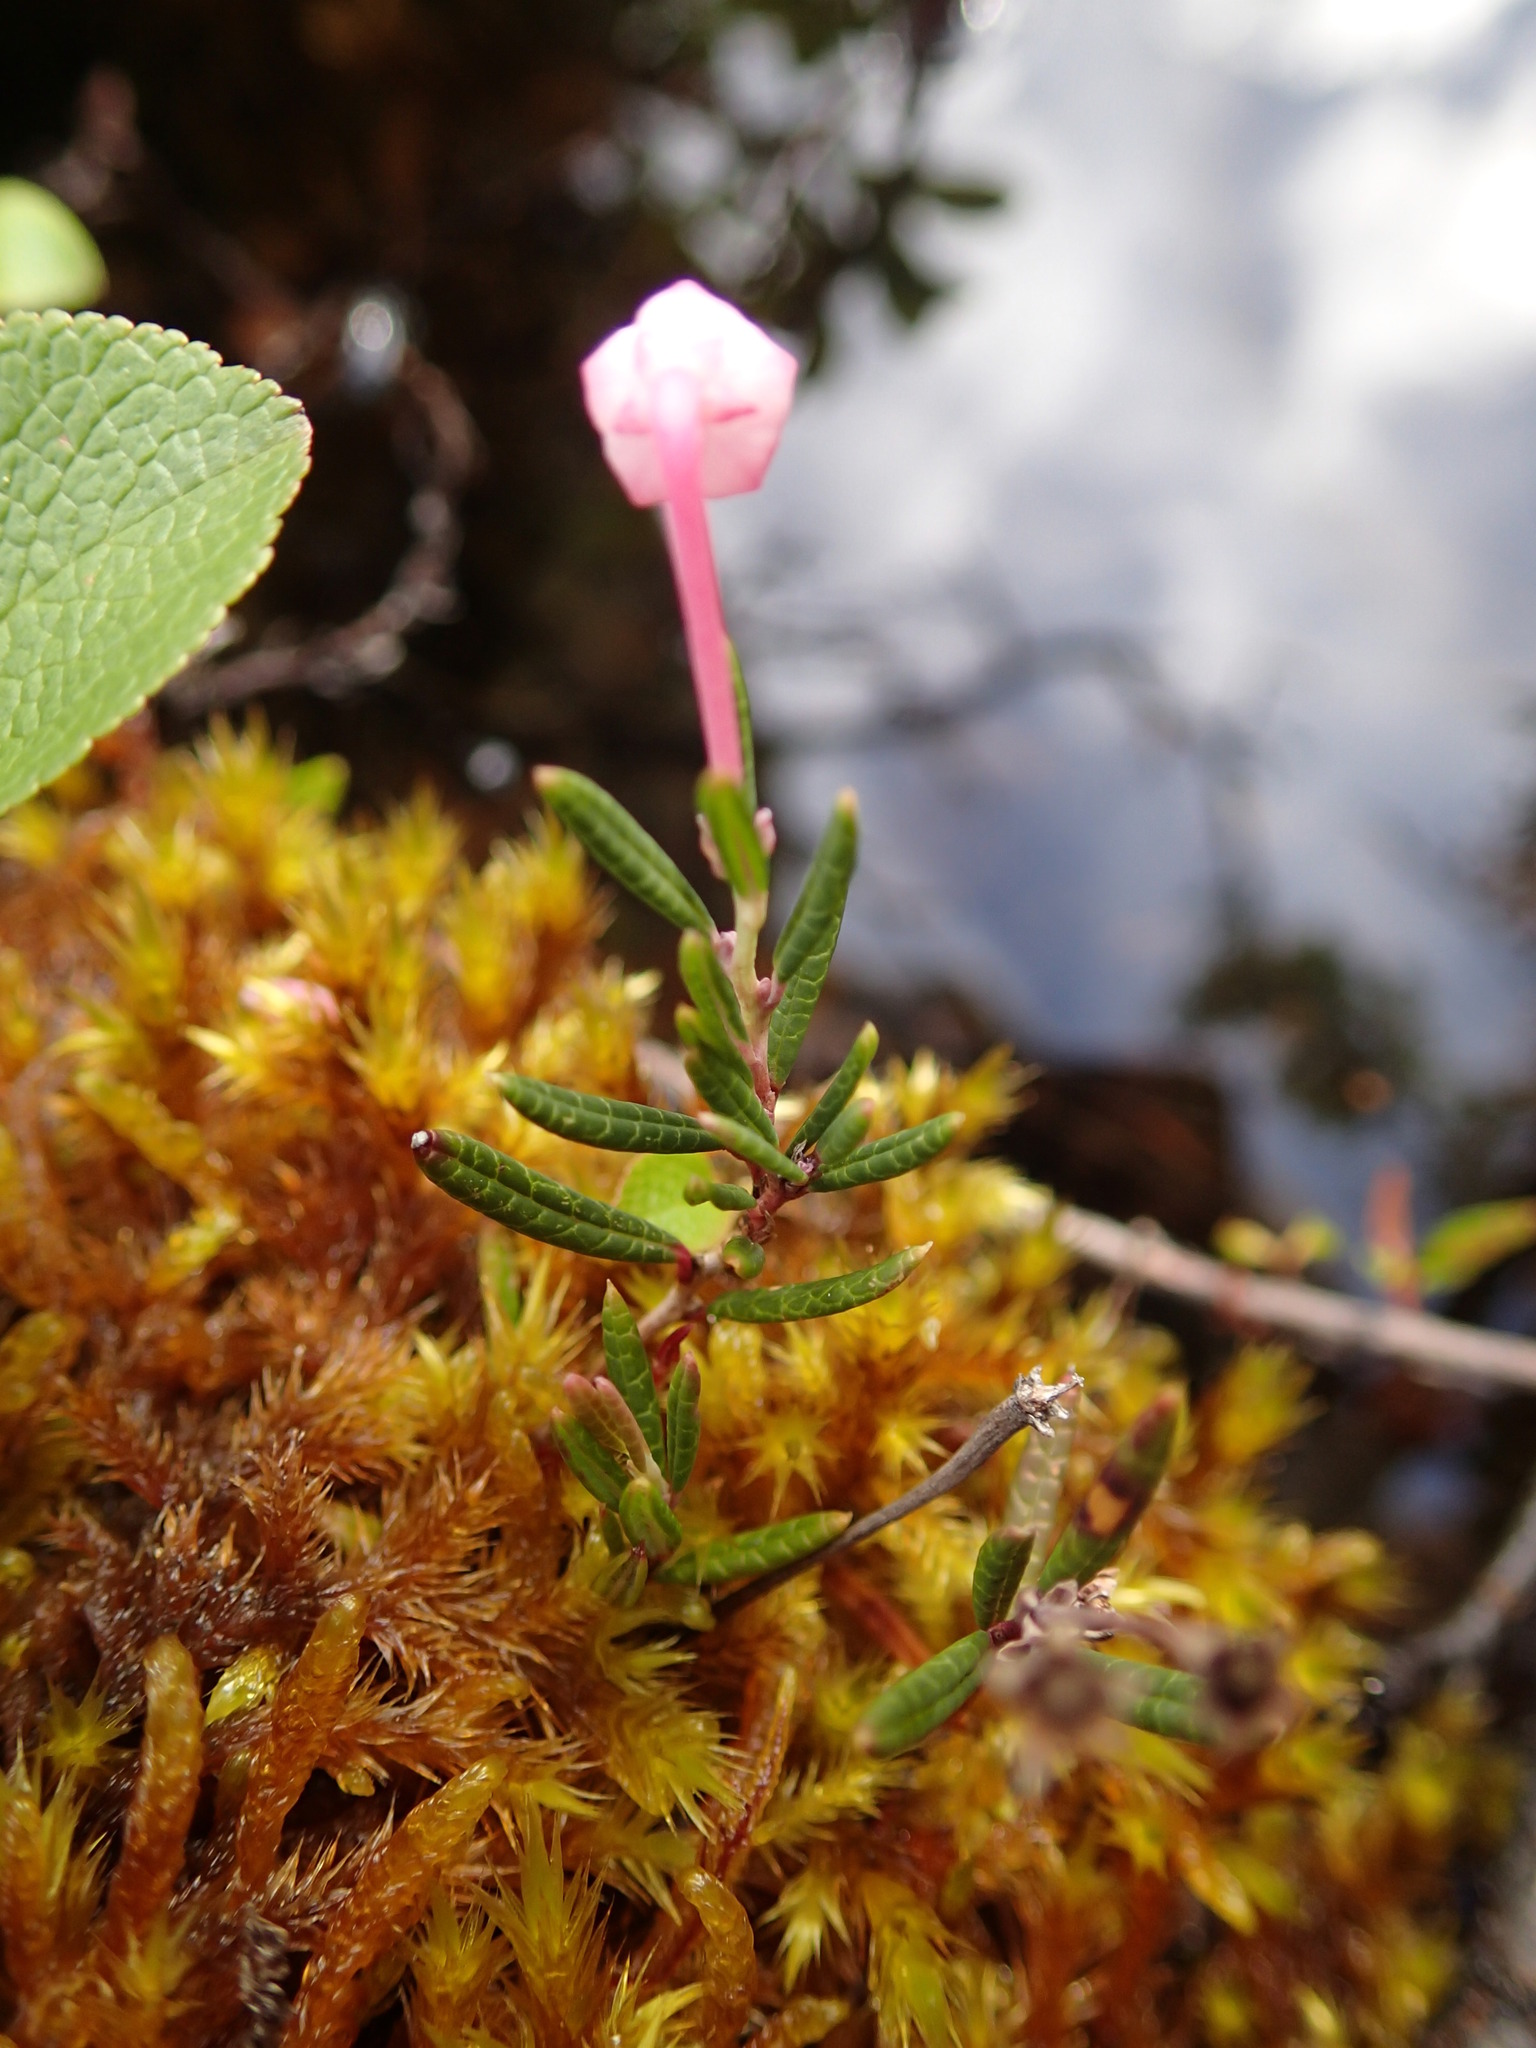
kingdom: Plantae
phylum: Tracheophyta
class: Magnoliopsida
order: Ericales
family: Ericaceae
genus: Andromeda
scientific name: Andromeda polifolia
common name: Bog-rosemary
